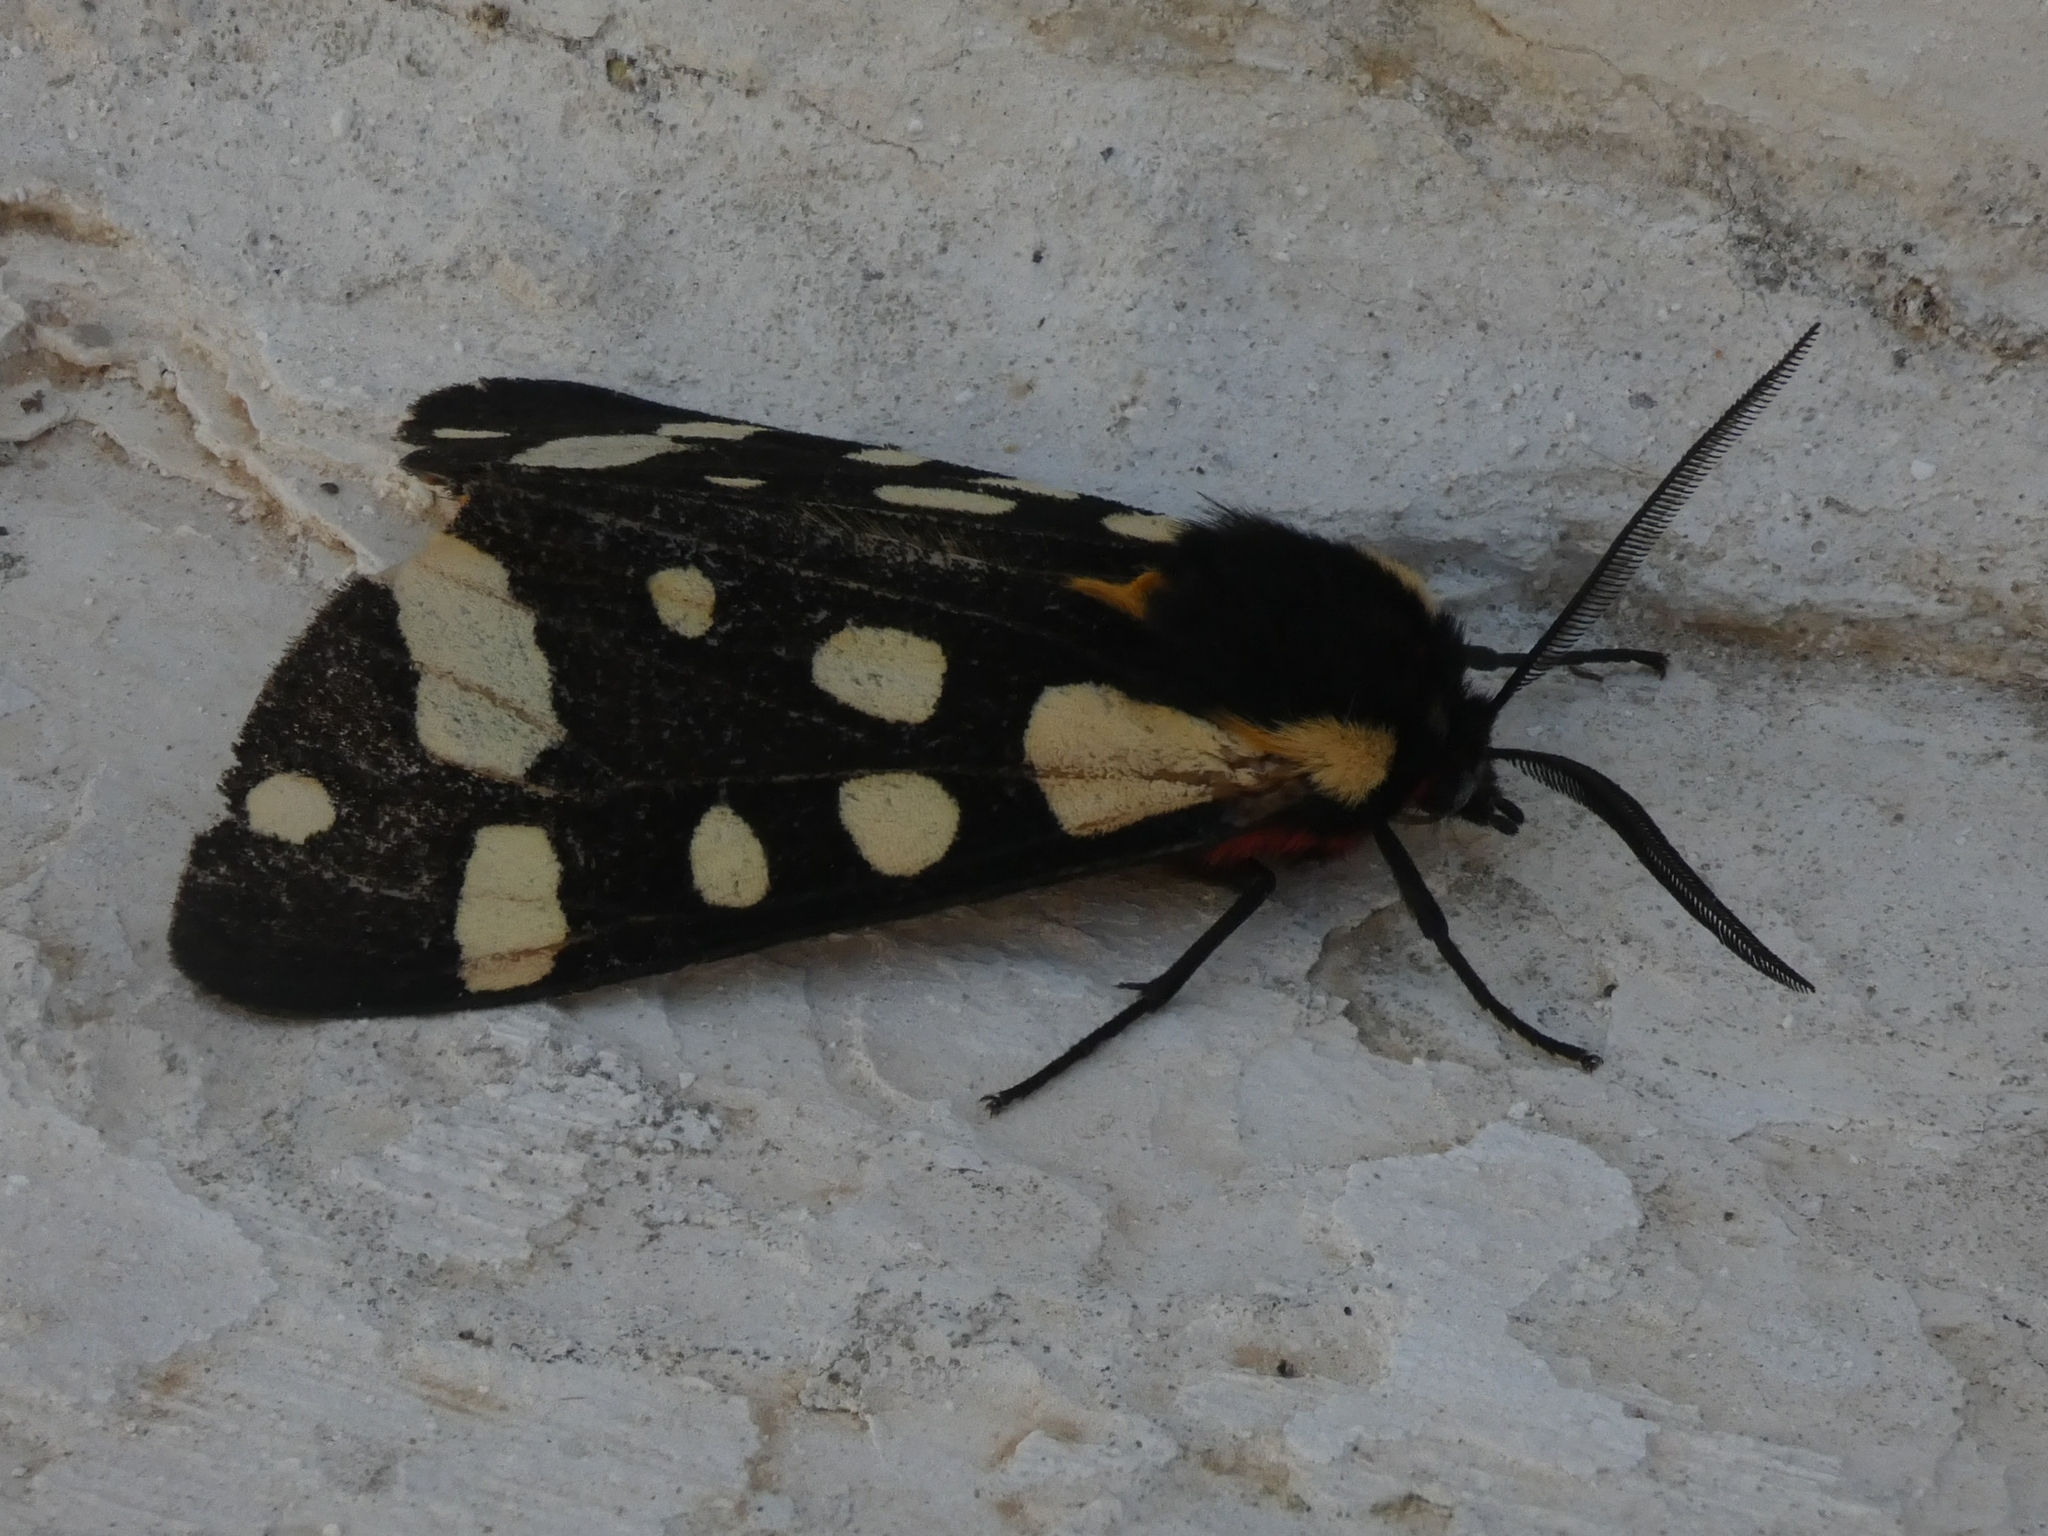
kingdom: Animalia
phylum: Arthropoda
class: Insecta
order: Lepidoptera
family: Erebidae
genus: Epicallia
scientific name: Epicallia villica
